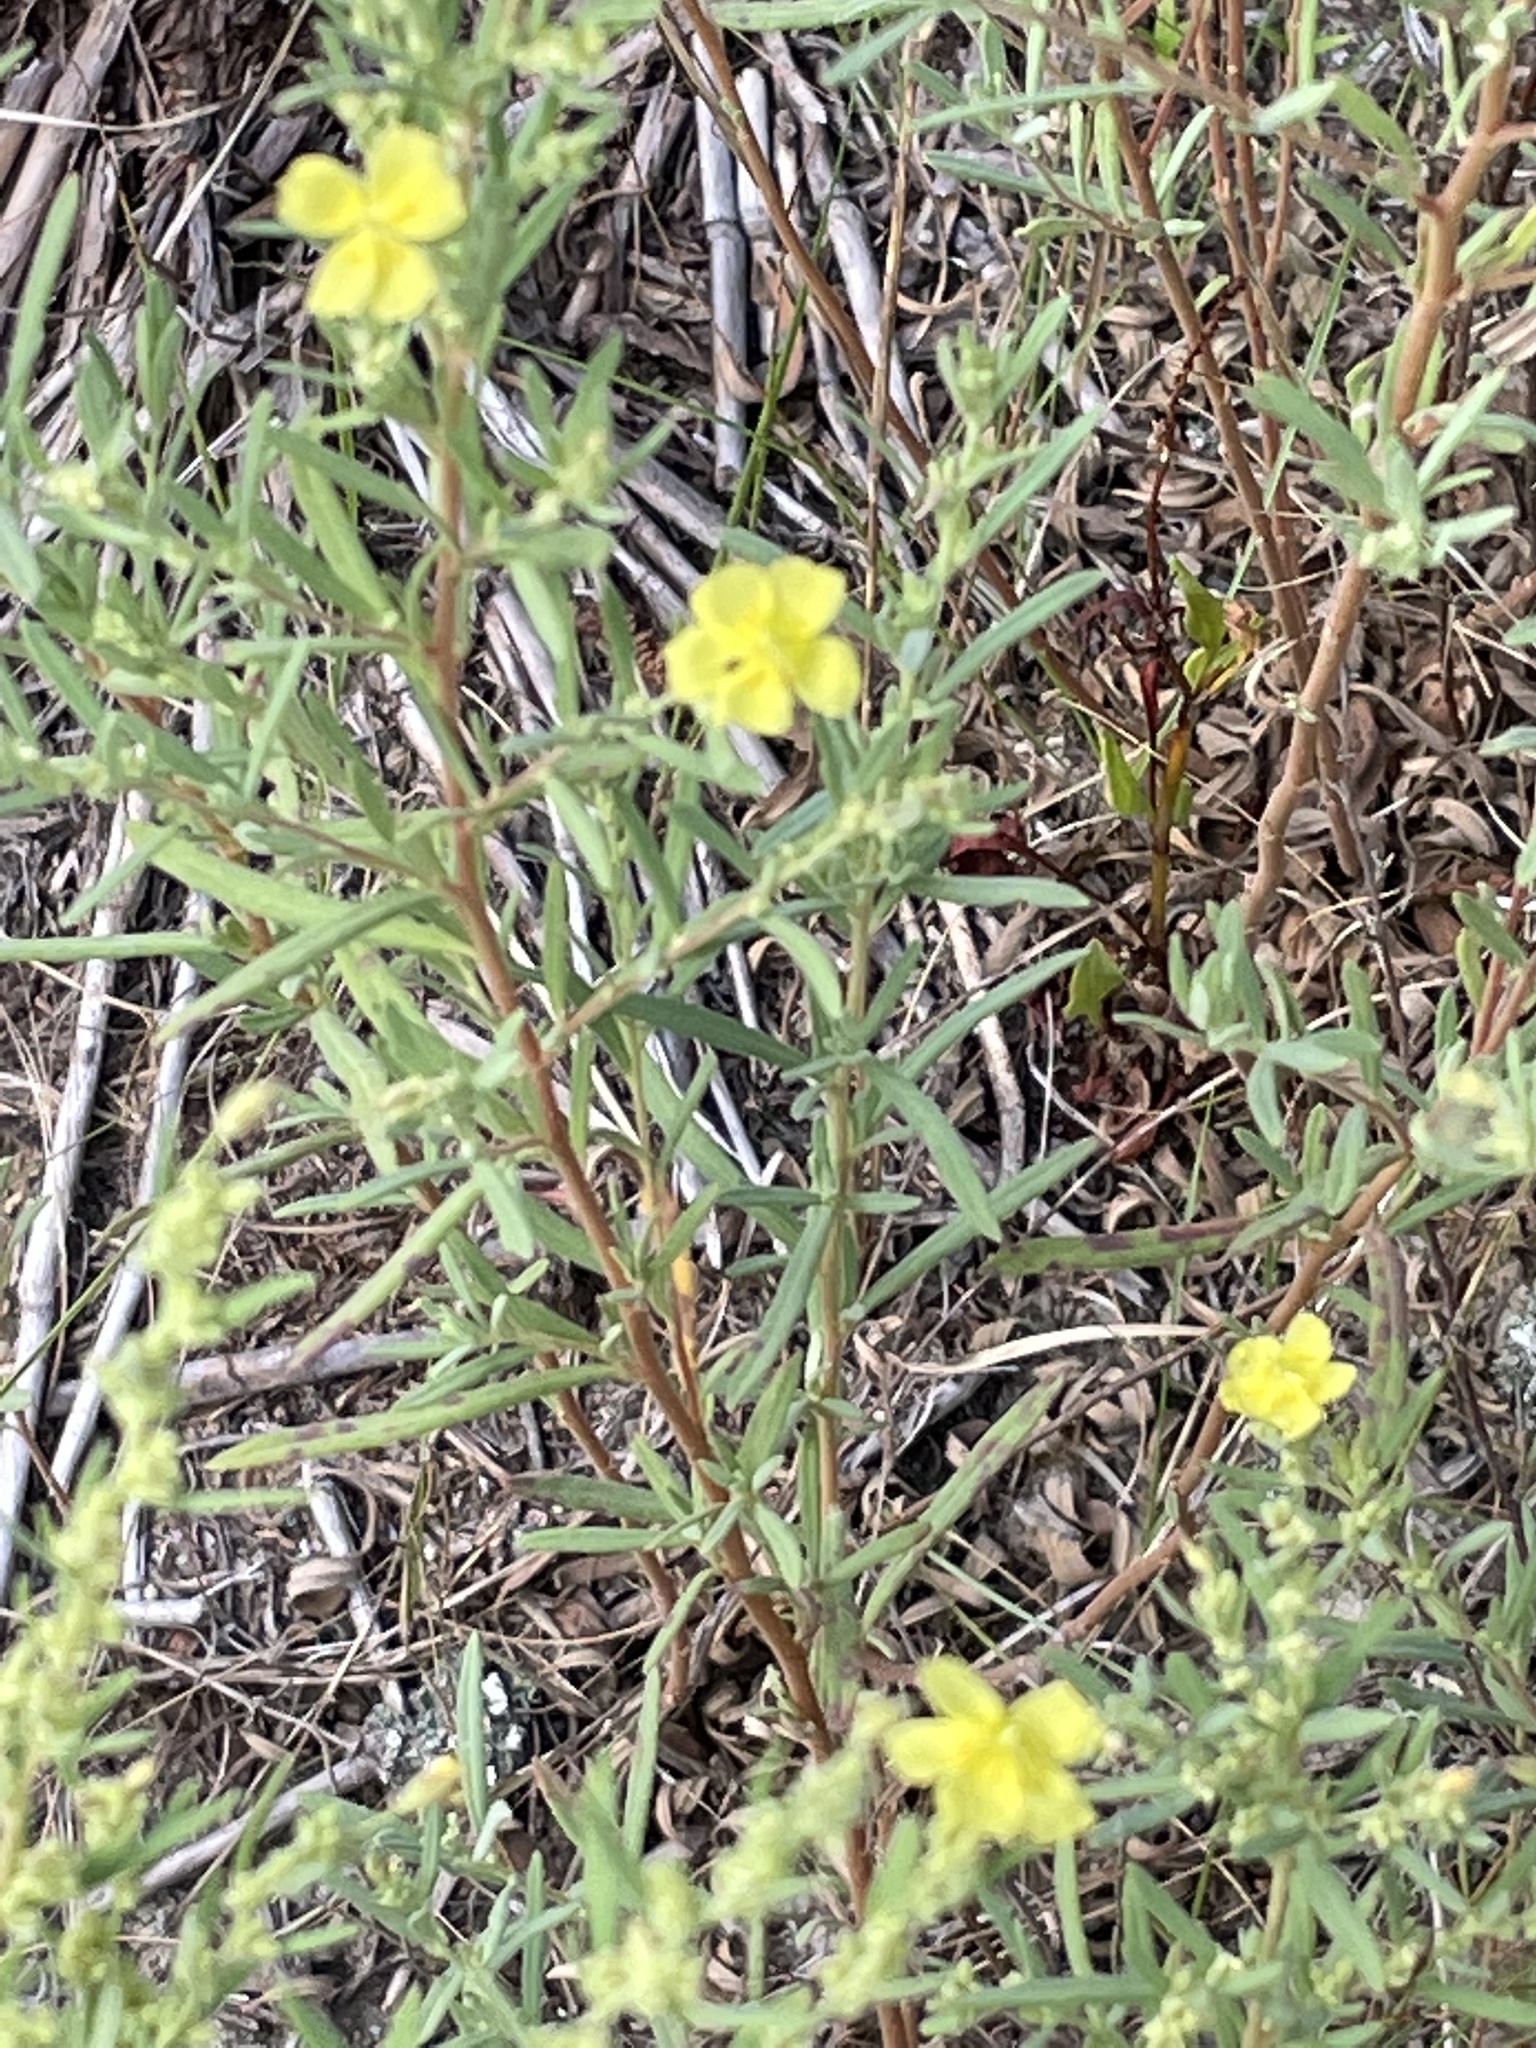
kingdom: Plantae
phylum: Tracheophyta
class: Magnoliopsida
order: Malvales
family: Cistaceae
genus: Crocanthemum
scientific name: Crocanthemum rosmarinifolium
